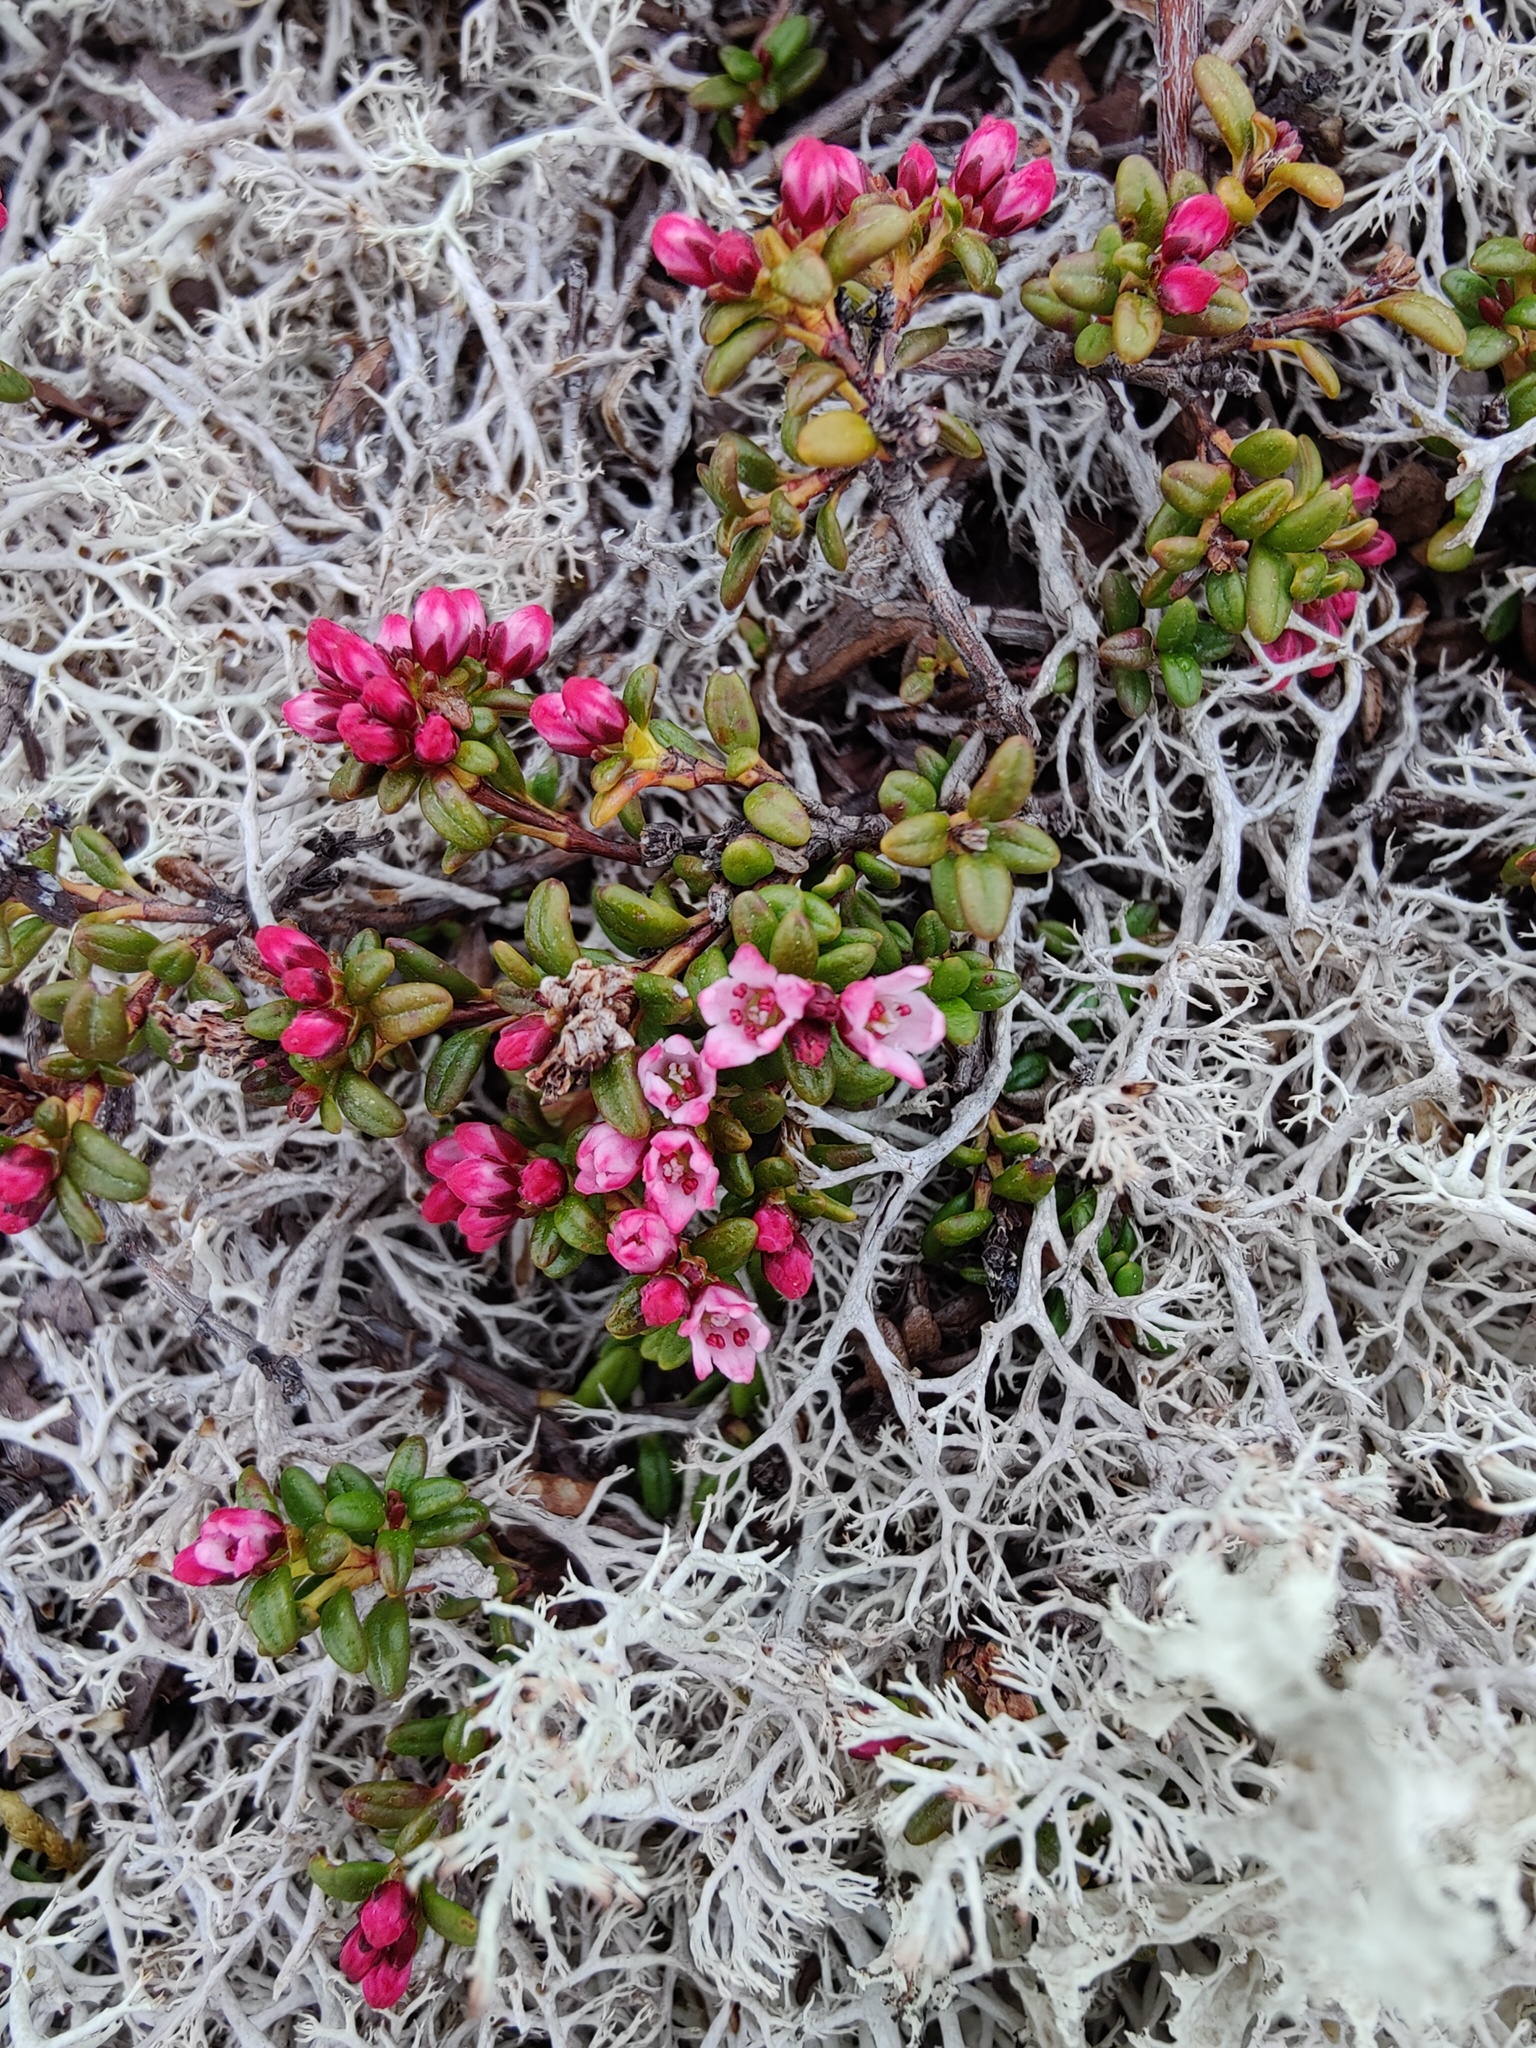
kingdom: Plantae
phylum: Tracheophyta
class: Magnoliopsida
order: Ericales
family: Ericaceae
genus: Kalmia
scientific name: Kalmia procumbens
